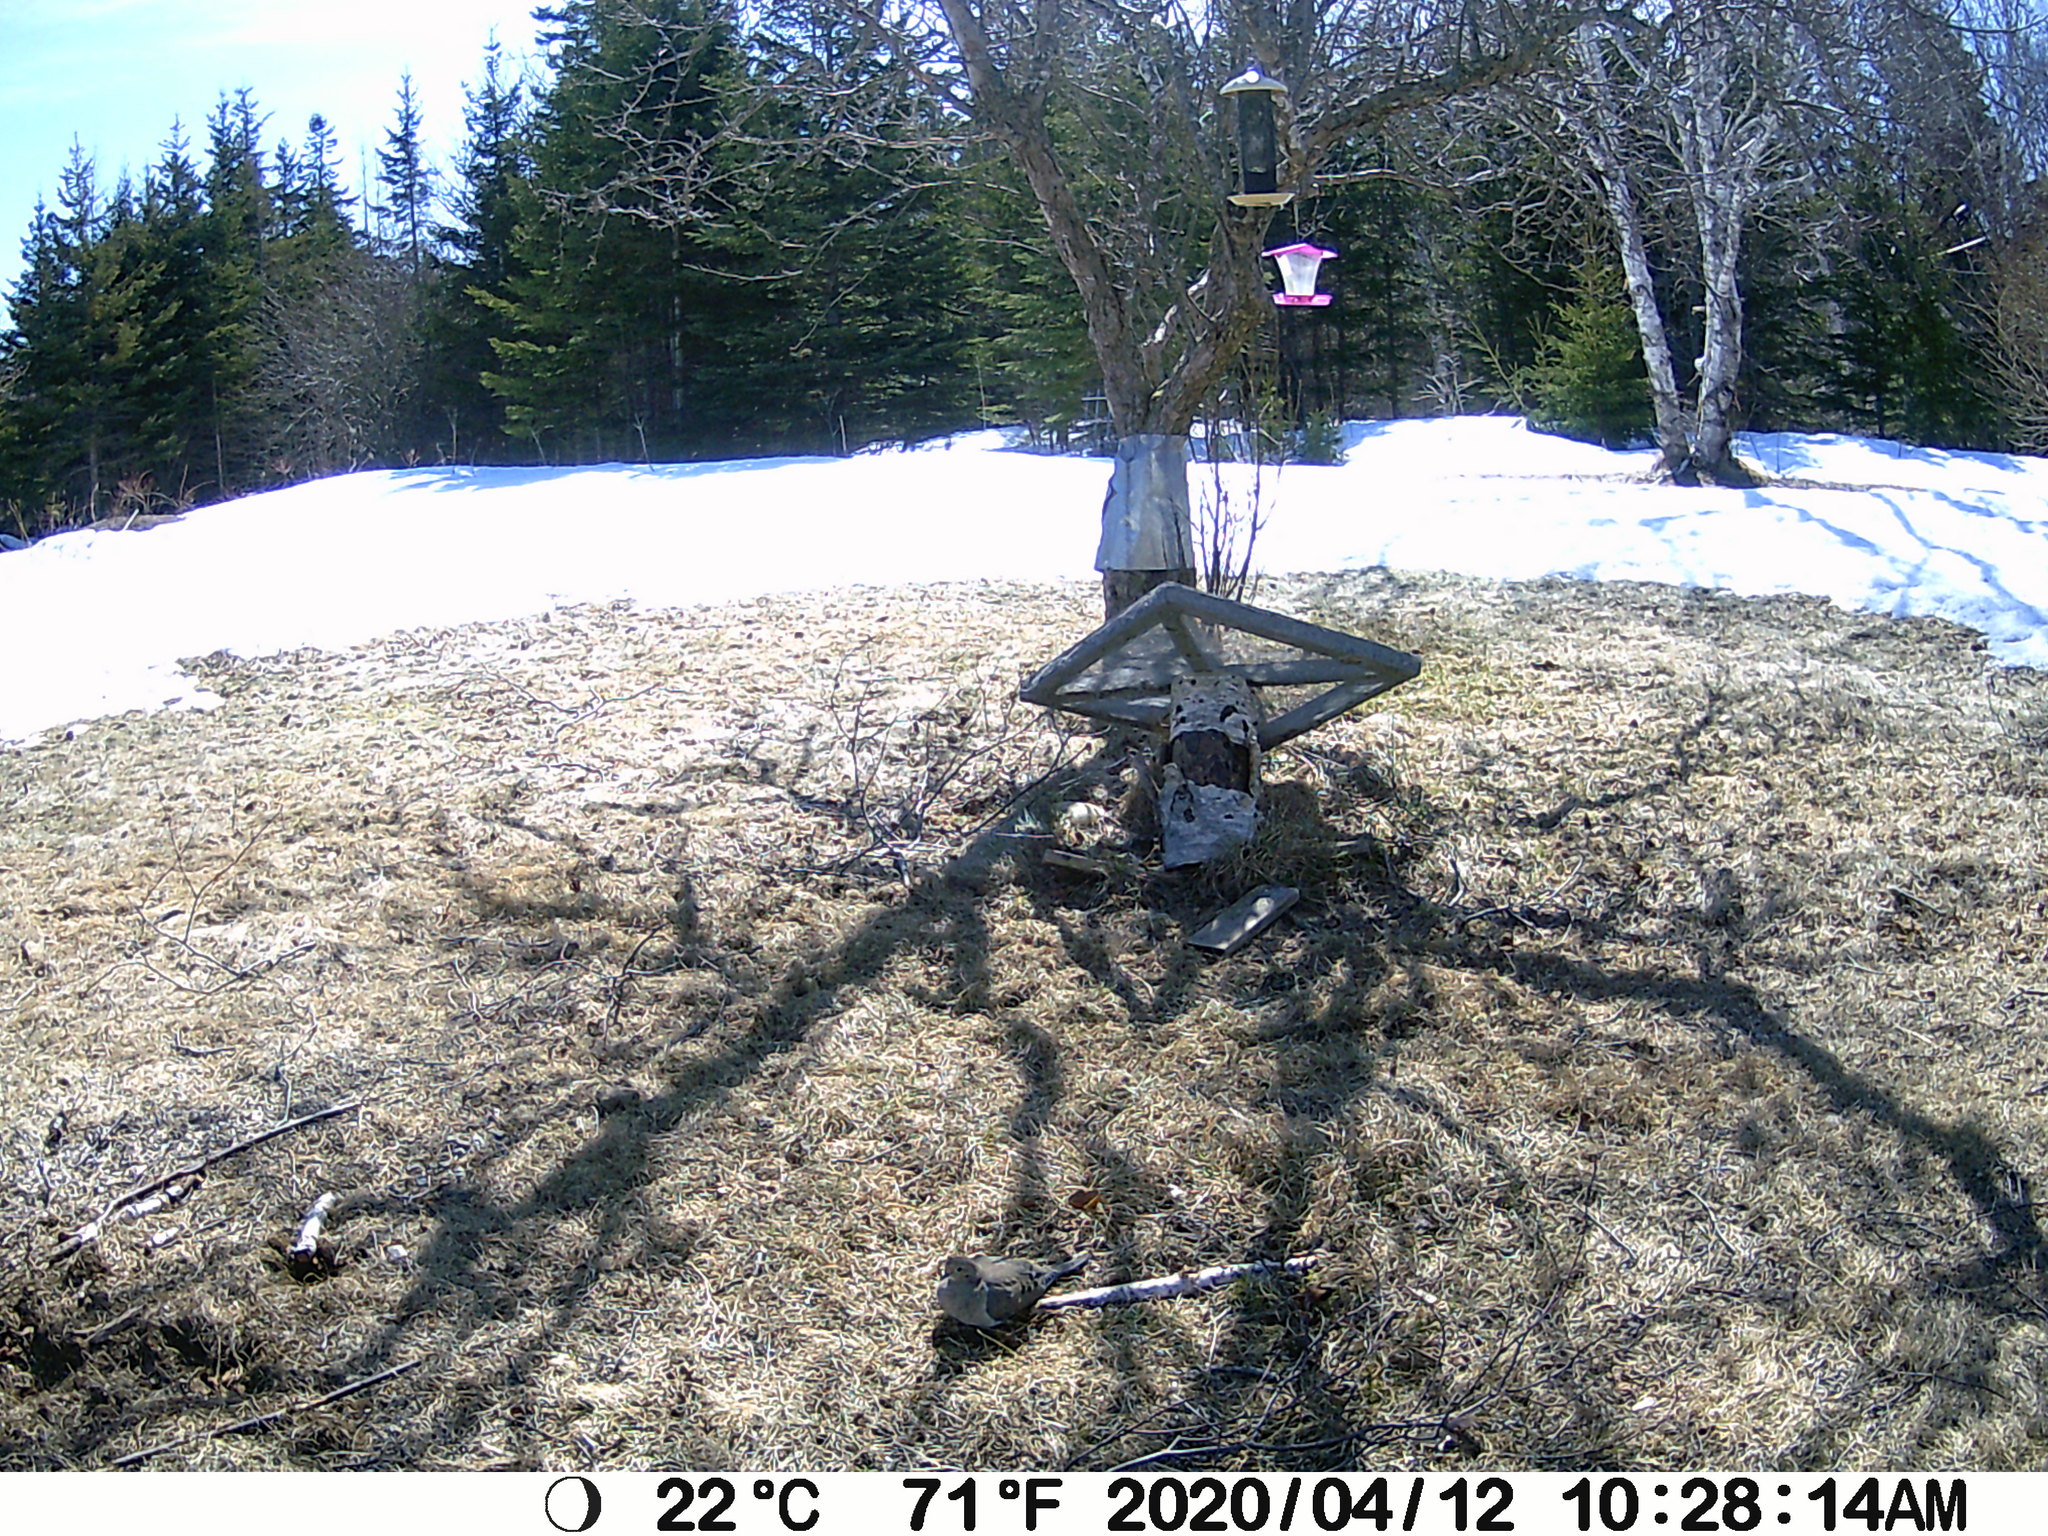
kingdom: Animalia
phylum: Chordata
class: Aves
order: Columbiformes
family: Columbidae
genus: Zenaida
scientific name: Zenaida macroura
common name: Mourning dove
